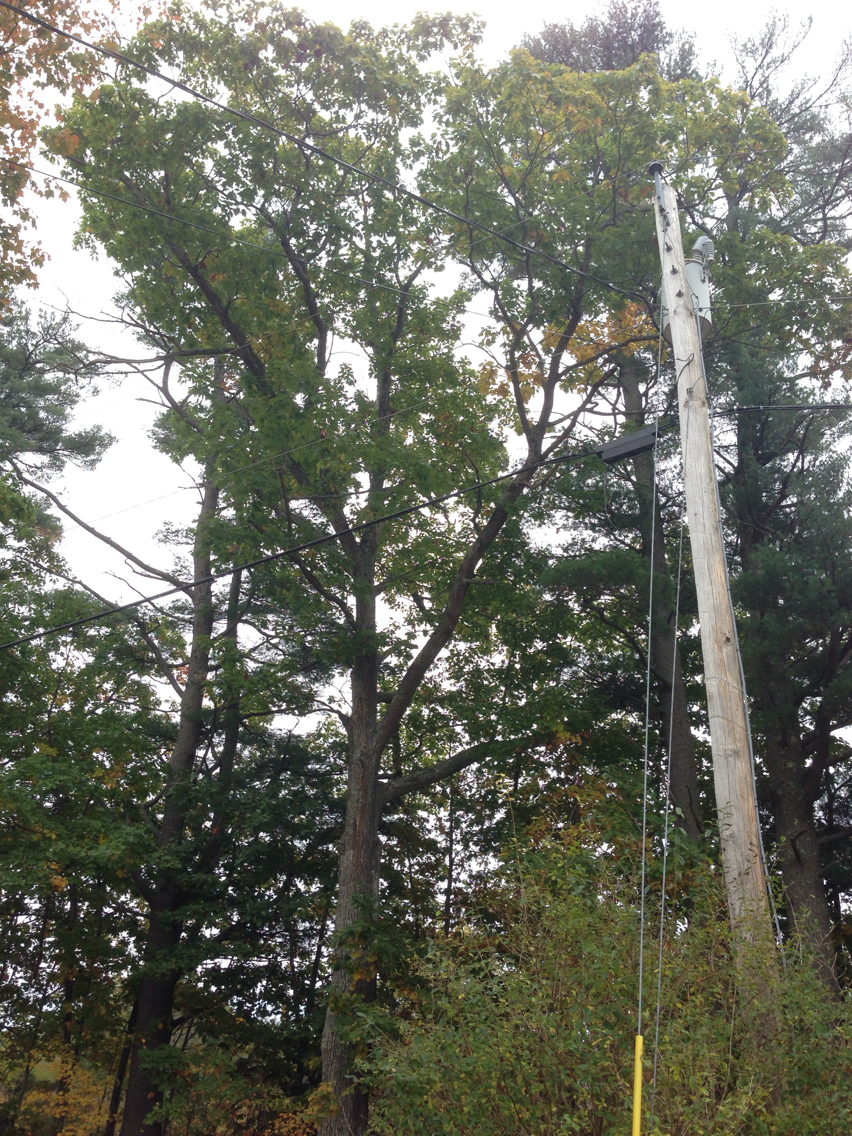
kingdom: Plantae
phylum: Tracheophyta
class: Magnoliopsida
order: Fagales
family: Fagaceae
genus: Quercus
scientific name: Quercus rubra
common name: Red oak
